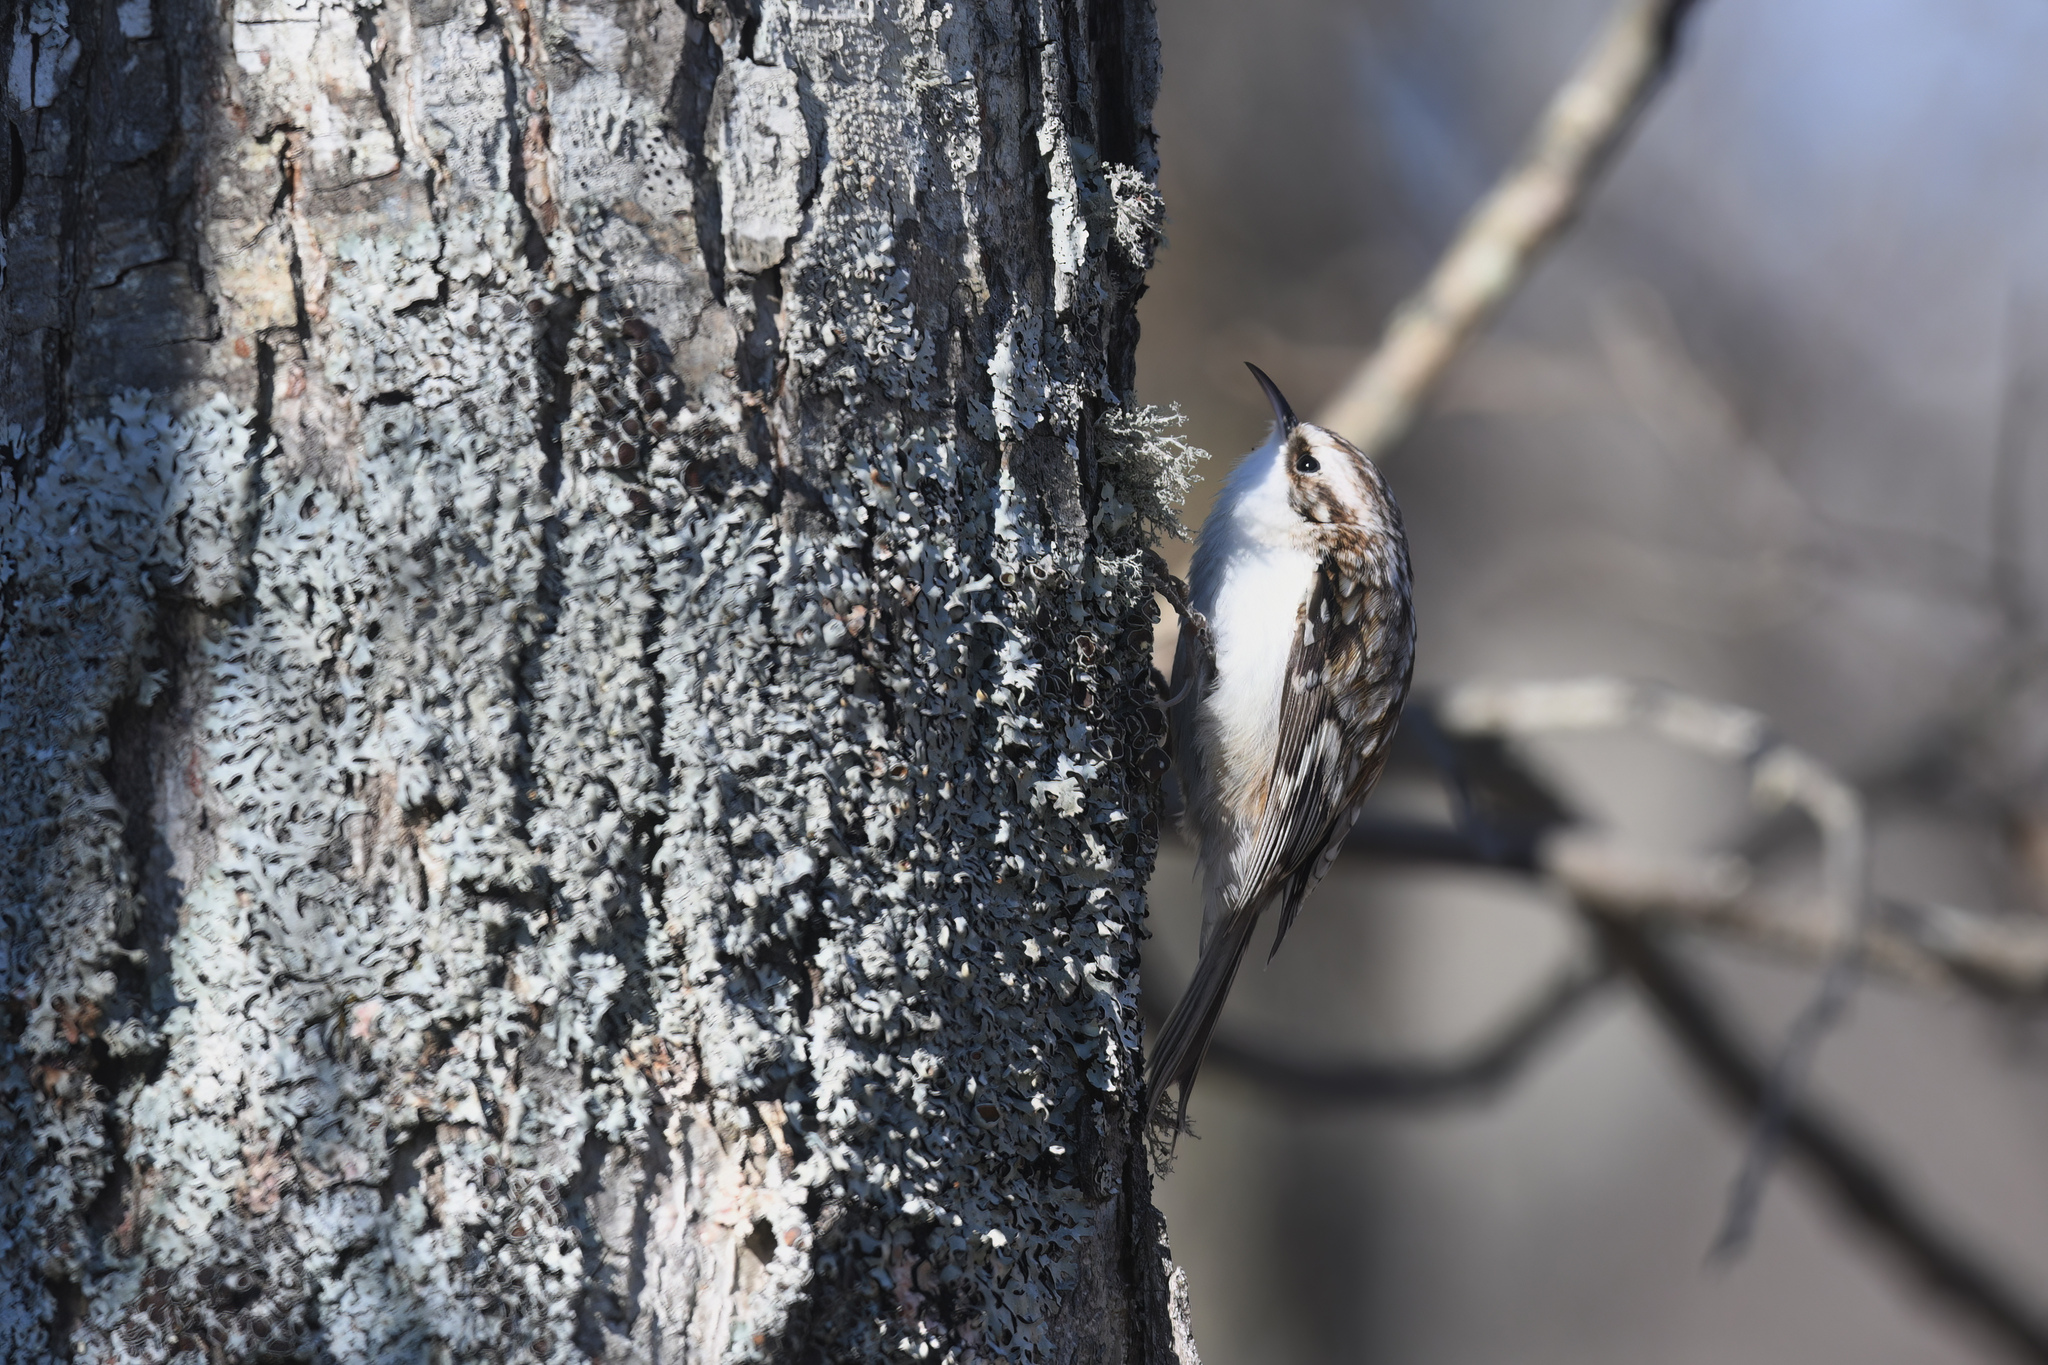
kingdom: Animalia
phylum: Chordata
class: Aves
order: Passeriformes
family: Certhiidae
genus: Certhia
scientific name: Certhia familiaris
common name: Eurasian treecreeper
